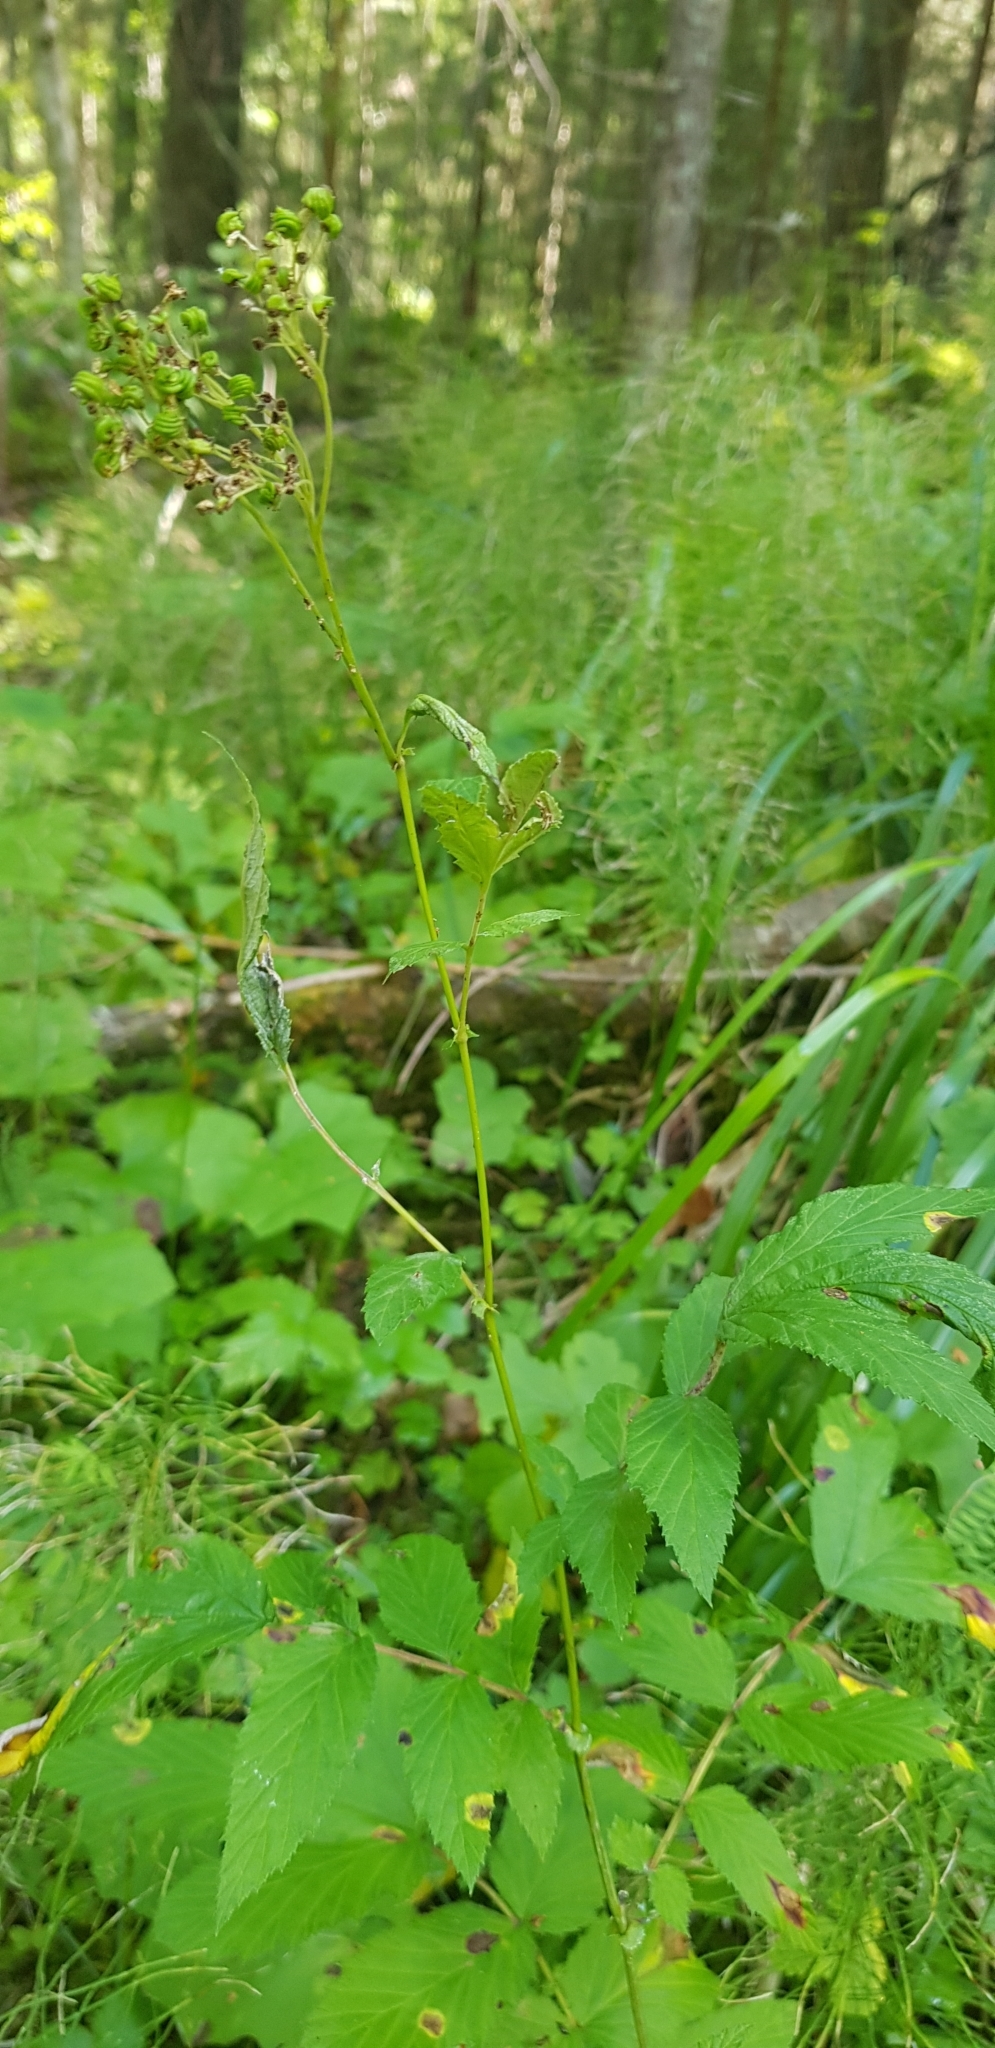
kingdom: Plantae
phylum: Tracheophyta
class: Magnoliopsida
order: Rosales
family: Rosaceae
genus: Filipendula
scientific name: Filipendula ulmaria
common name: Meadowsweet
